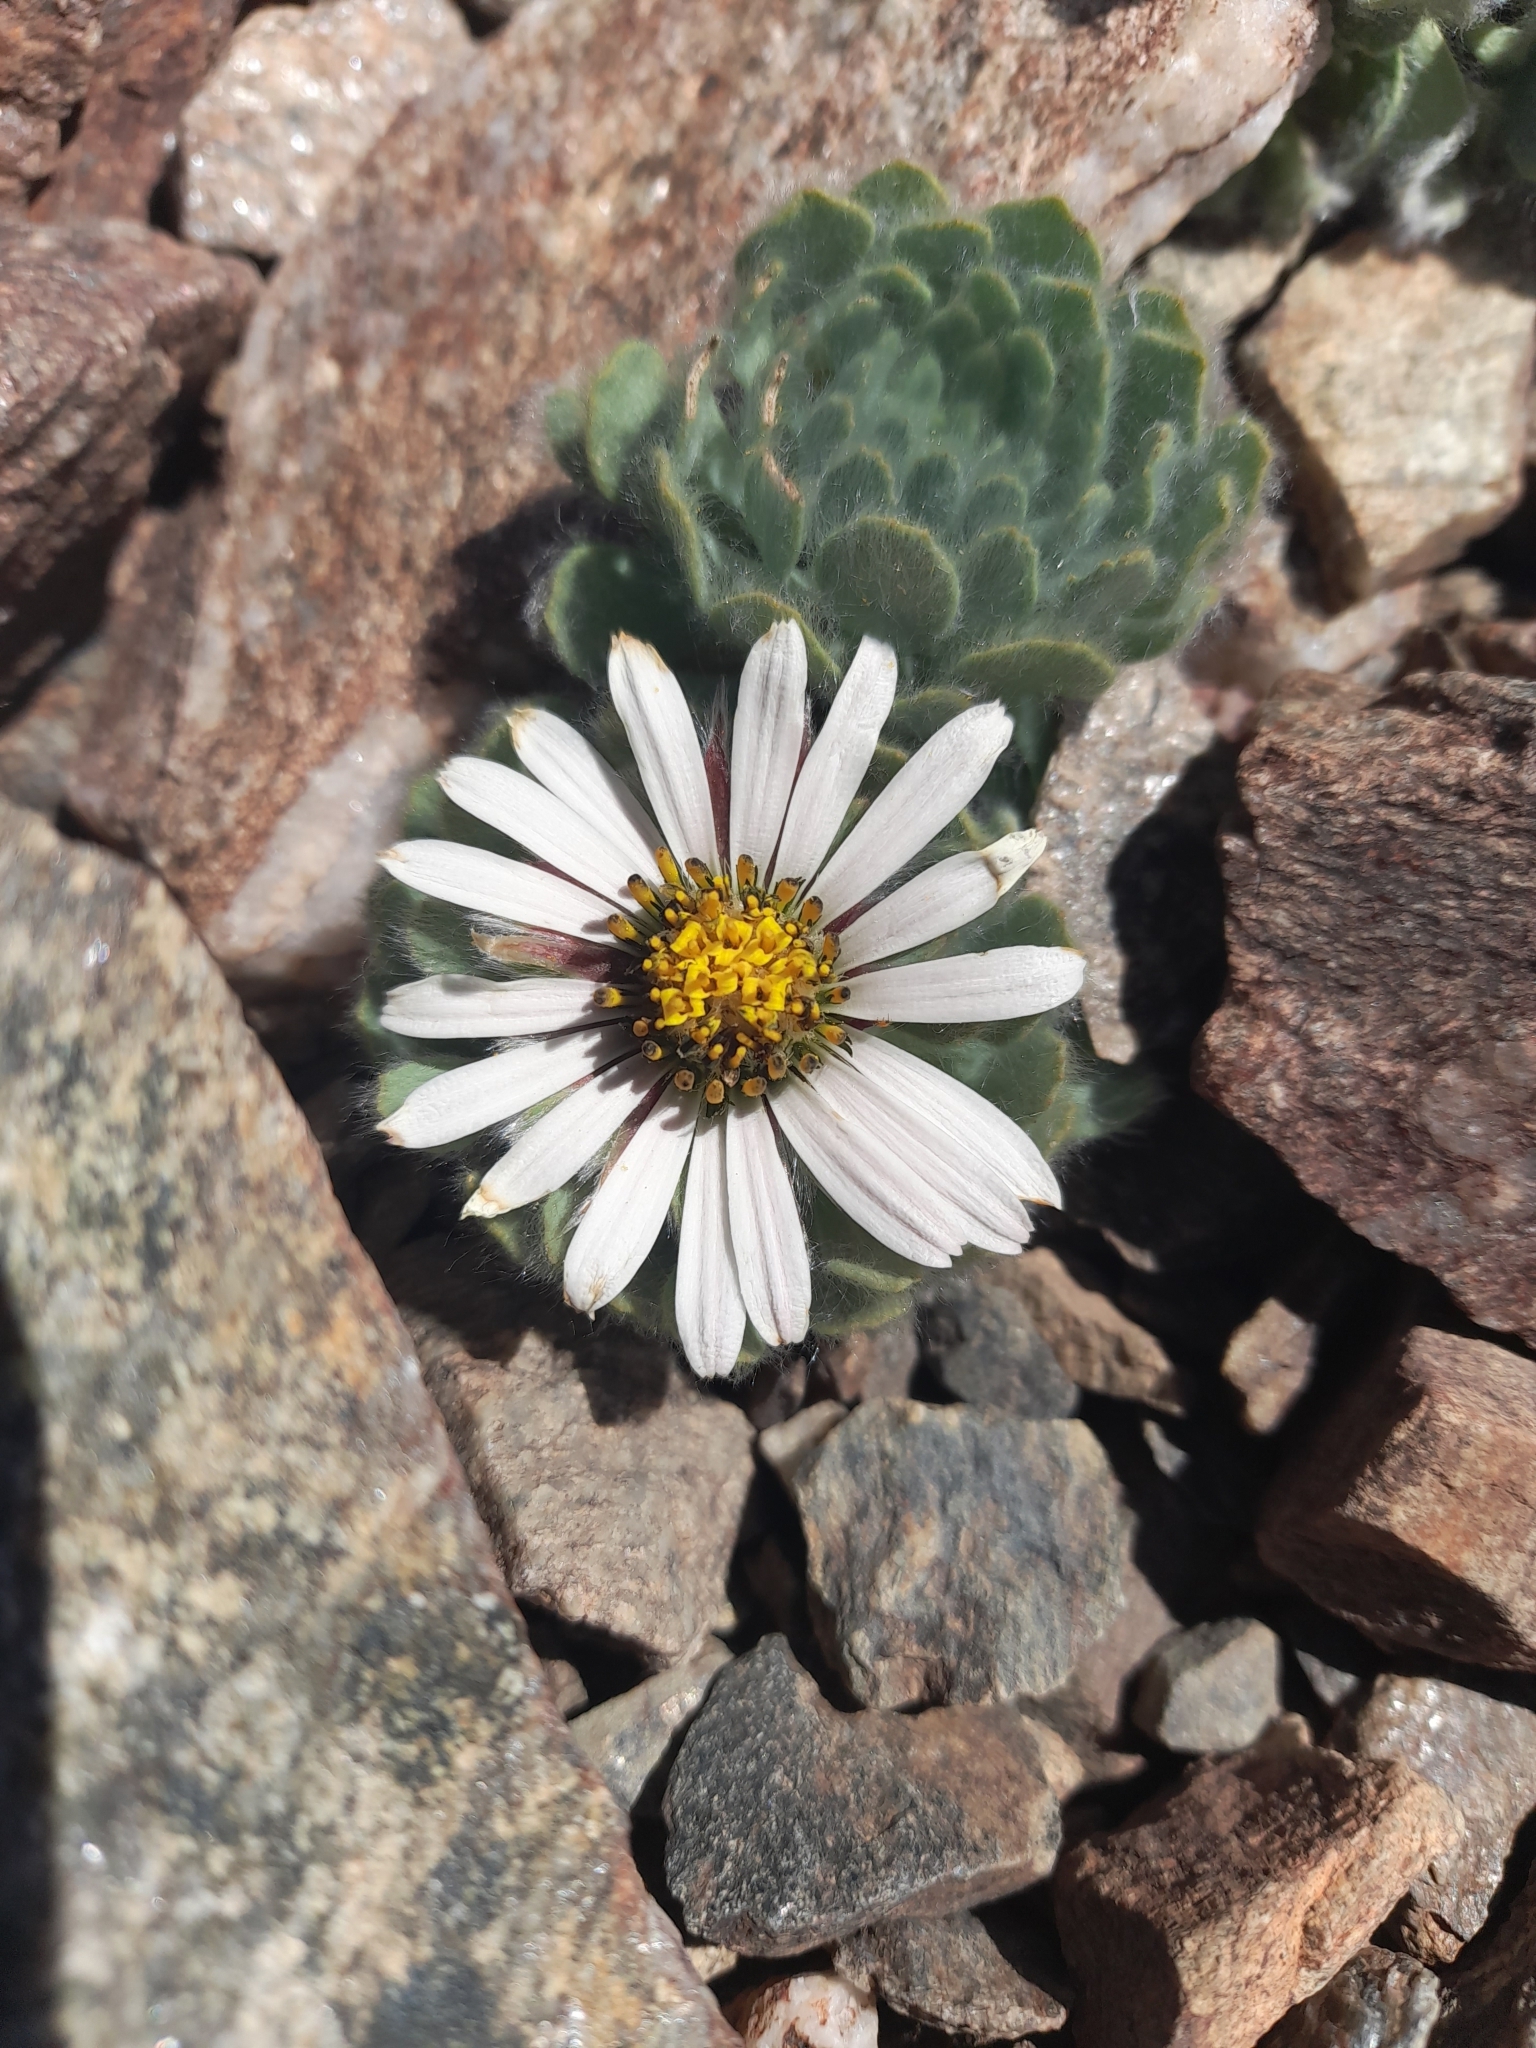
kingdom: Plantae
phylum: Tracheophyta
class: Magnoliopsida
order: Asterales
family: Asteraceae
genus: Chaetanthera
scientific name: Chaetanthera villosa
